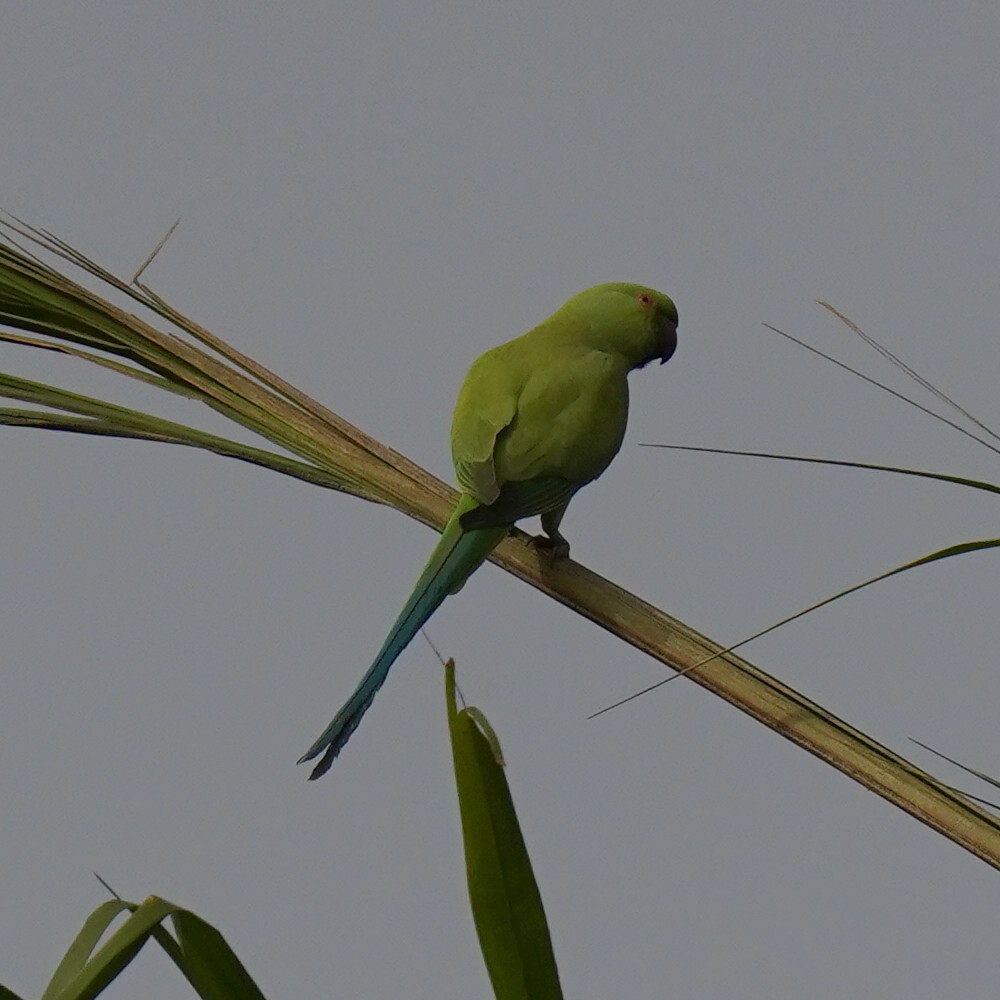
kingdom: Animalia
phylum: Chordata
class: Aves
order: Psittaciformes
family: Psittacidae
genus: Psittacula
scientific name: Psittacula krameri
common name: Rose-ringed parakeet
